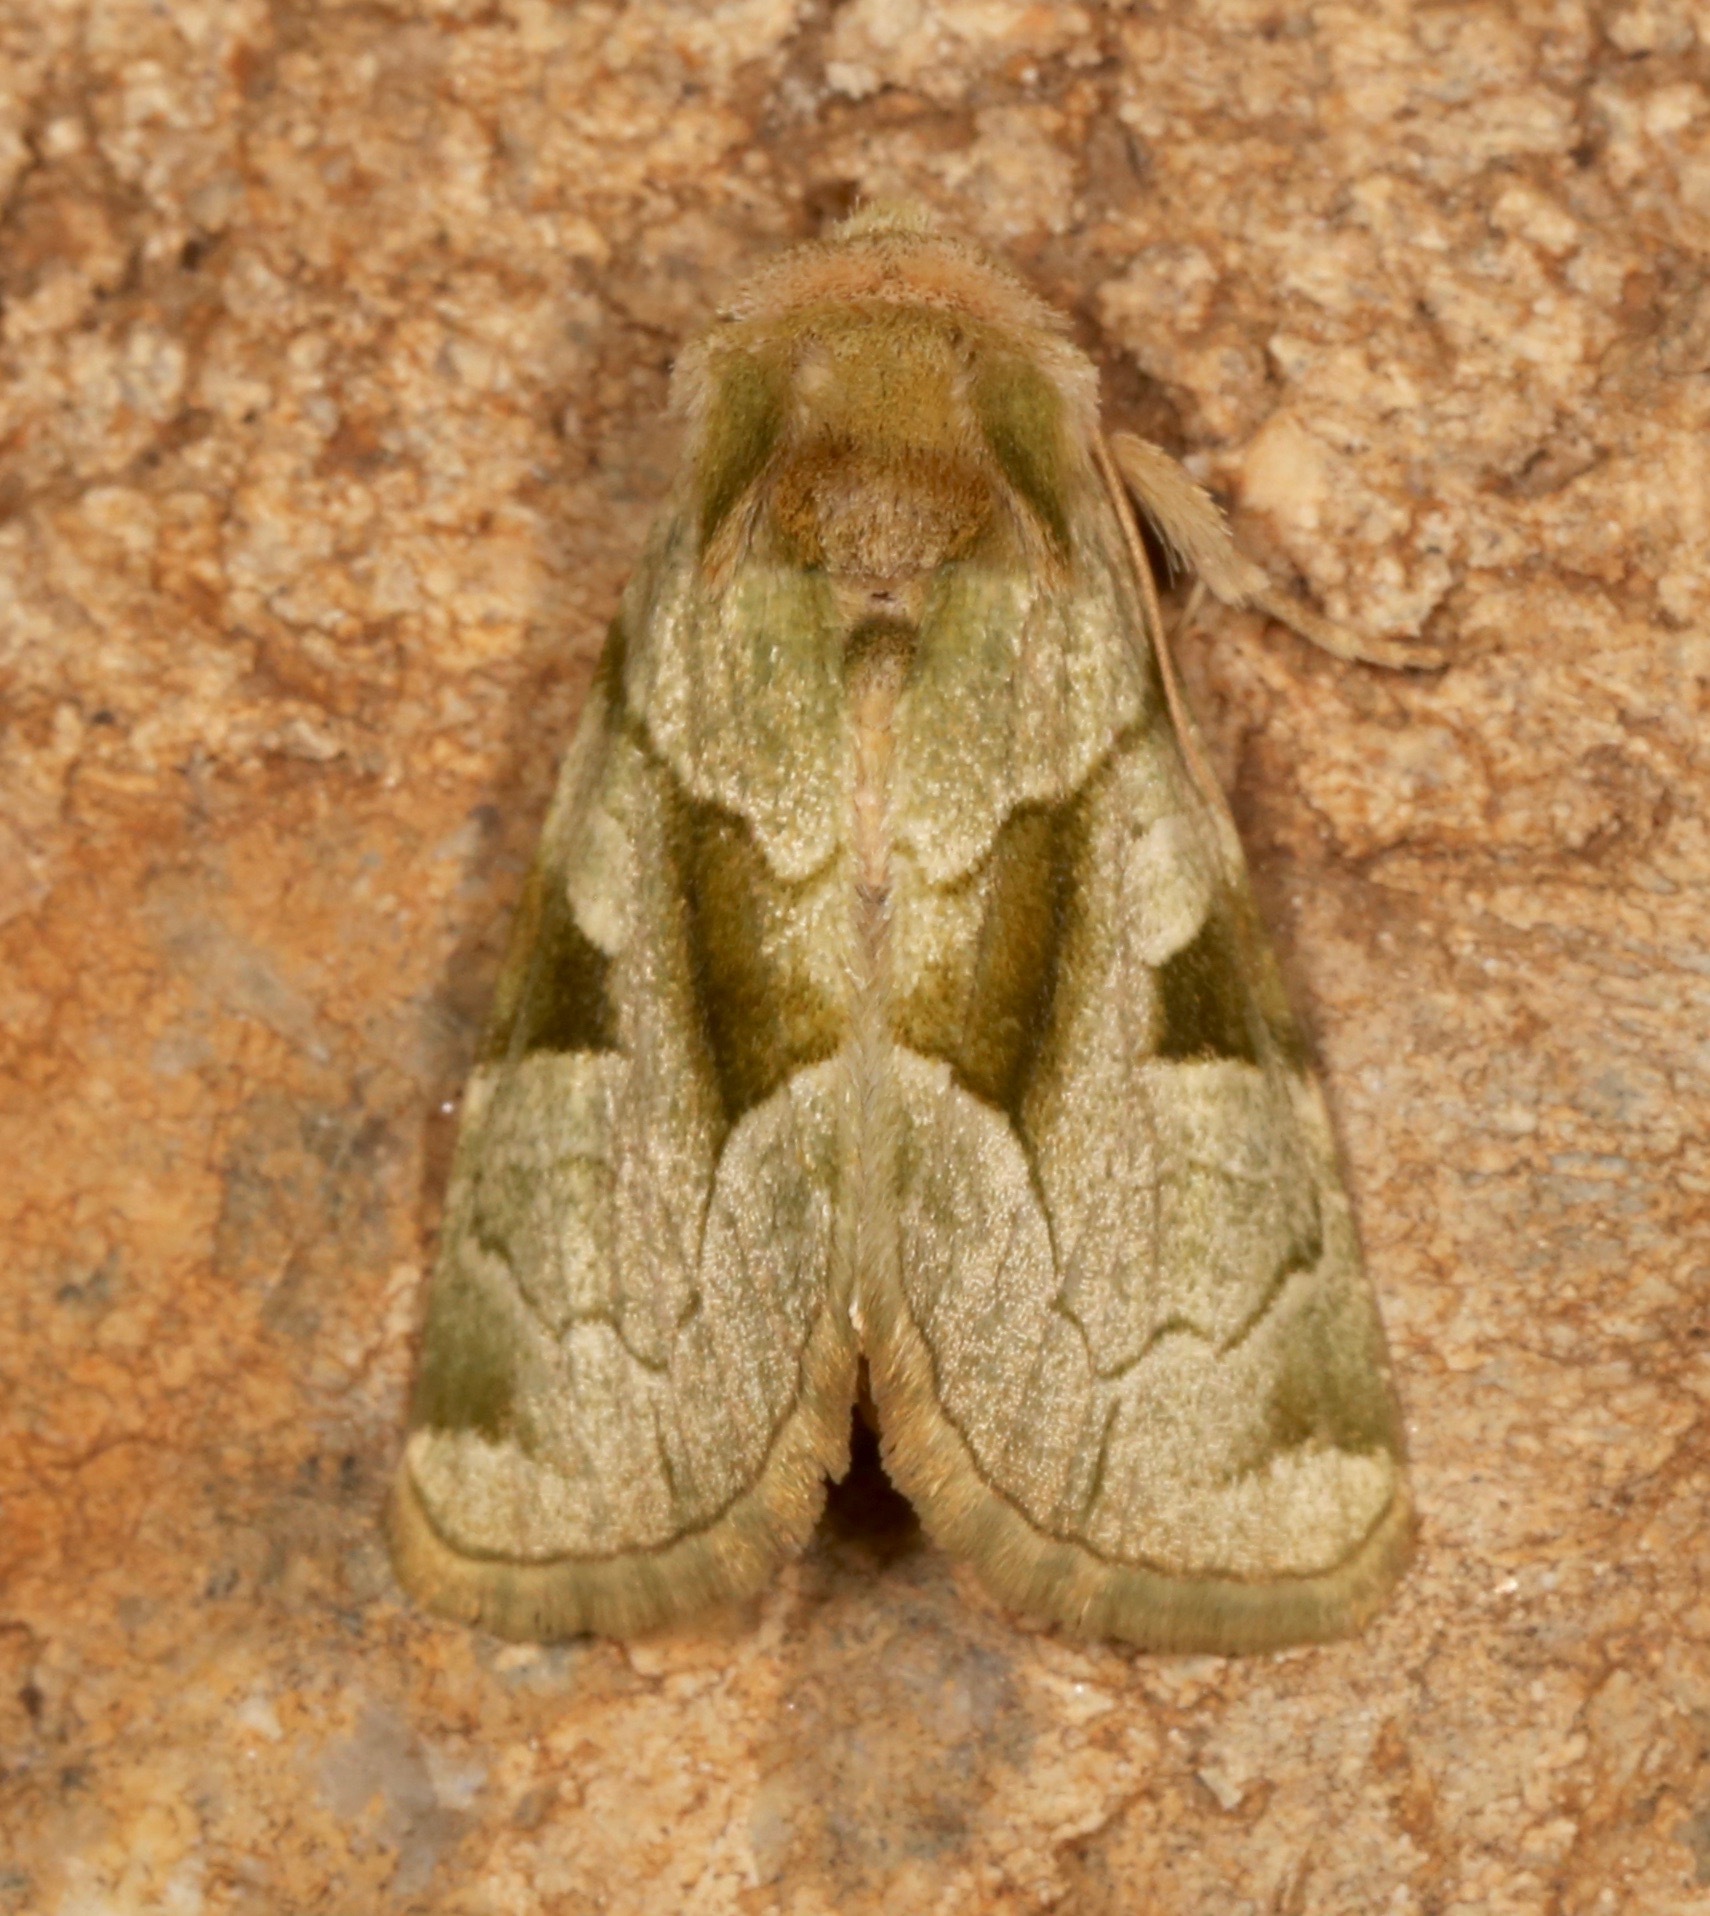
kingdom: Animalia
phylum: Arthropoda
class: Insecta
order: Lepidoptera
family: Noctuidae
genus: Oslaria
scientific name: Oslaria viridifera
